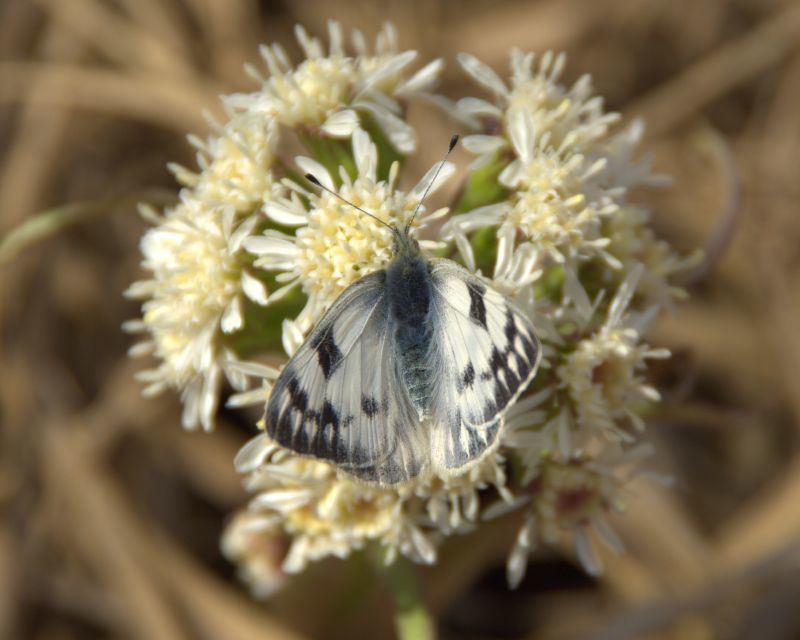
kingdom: Animalia
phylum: Arthropoda
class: Insecta
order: Lepidoptera
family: Pieridae
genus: Pontia
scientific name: Pontia occidentalis
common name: Western white
